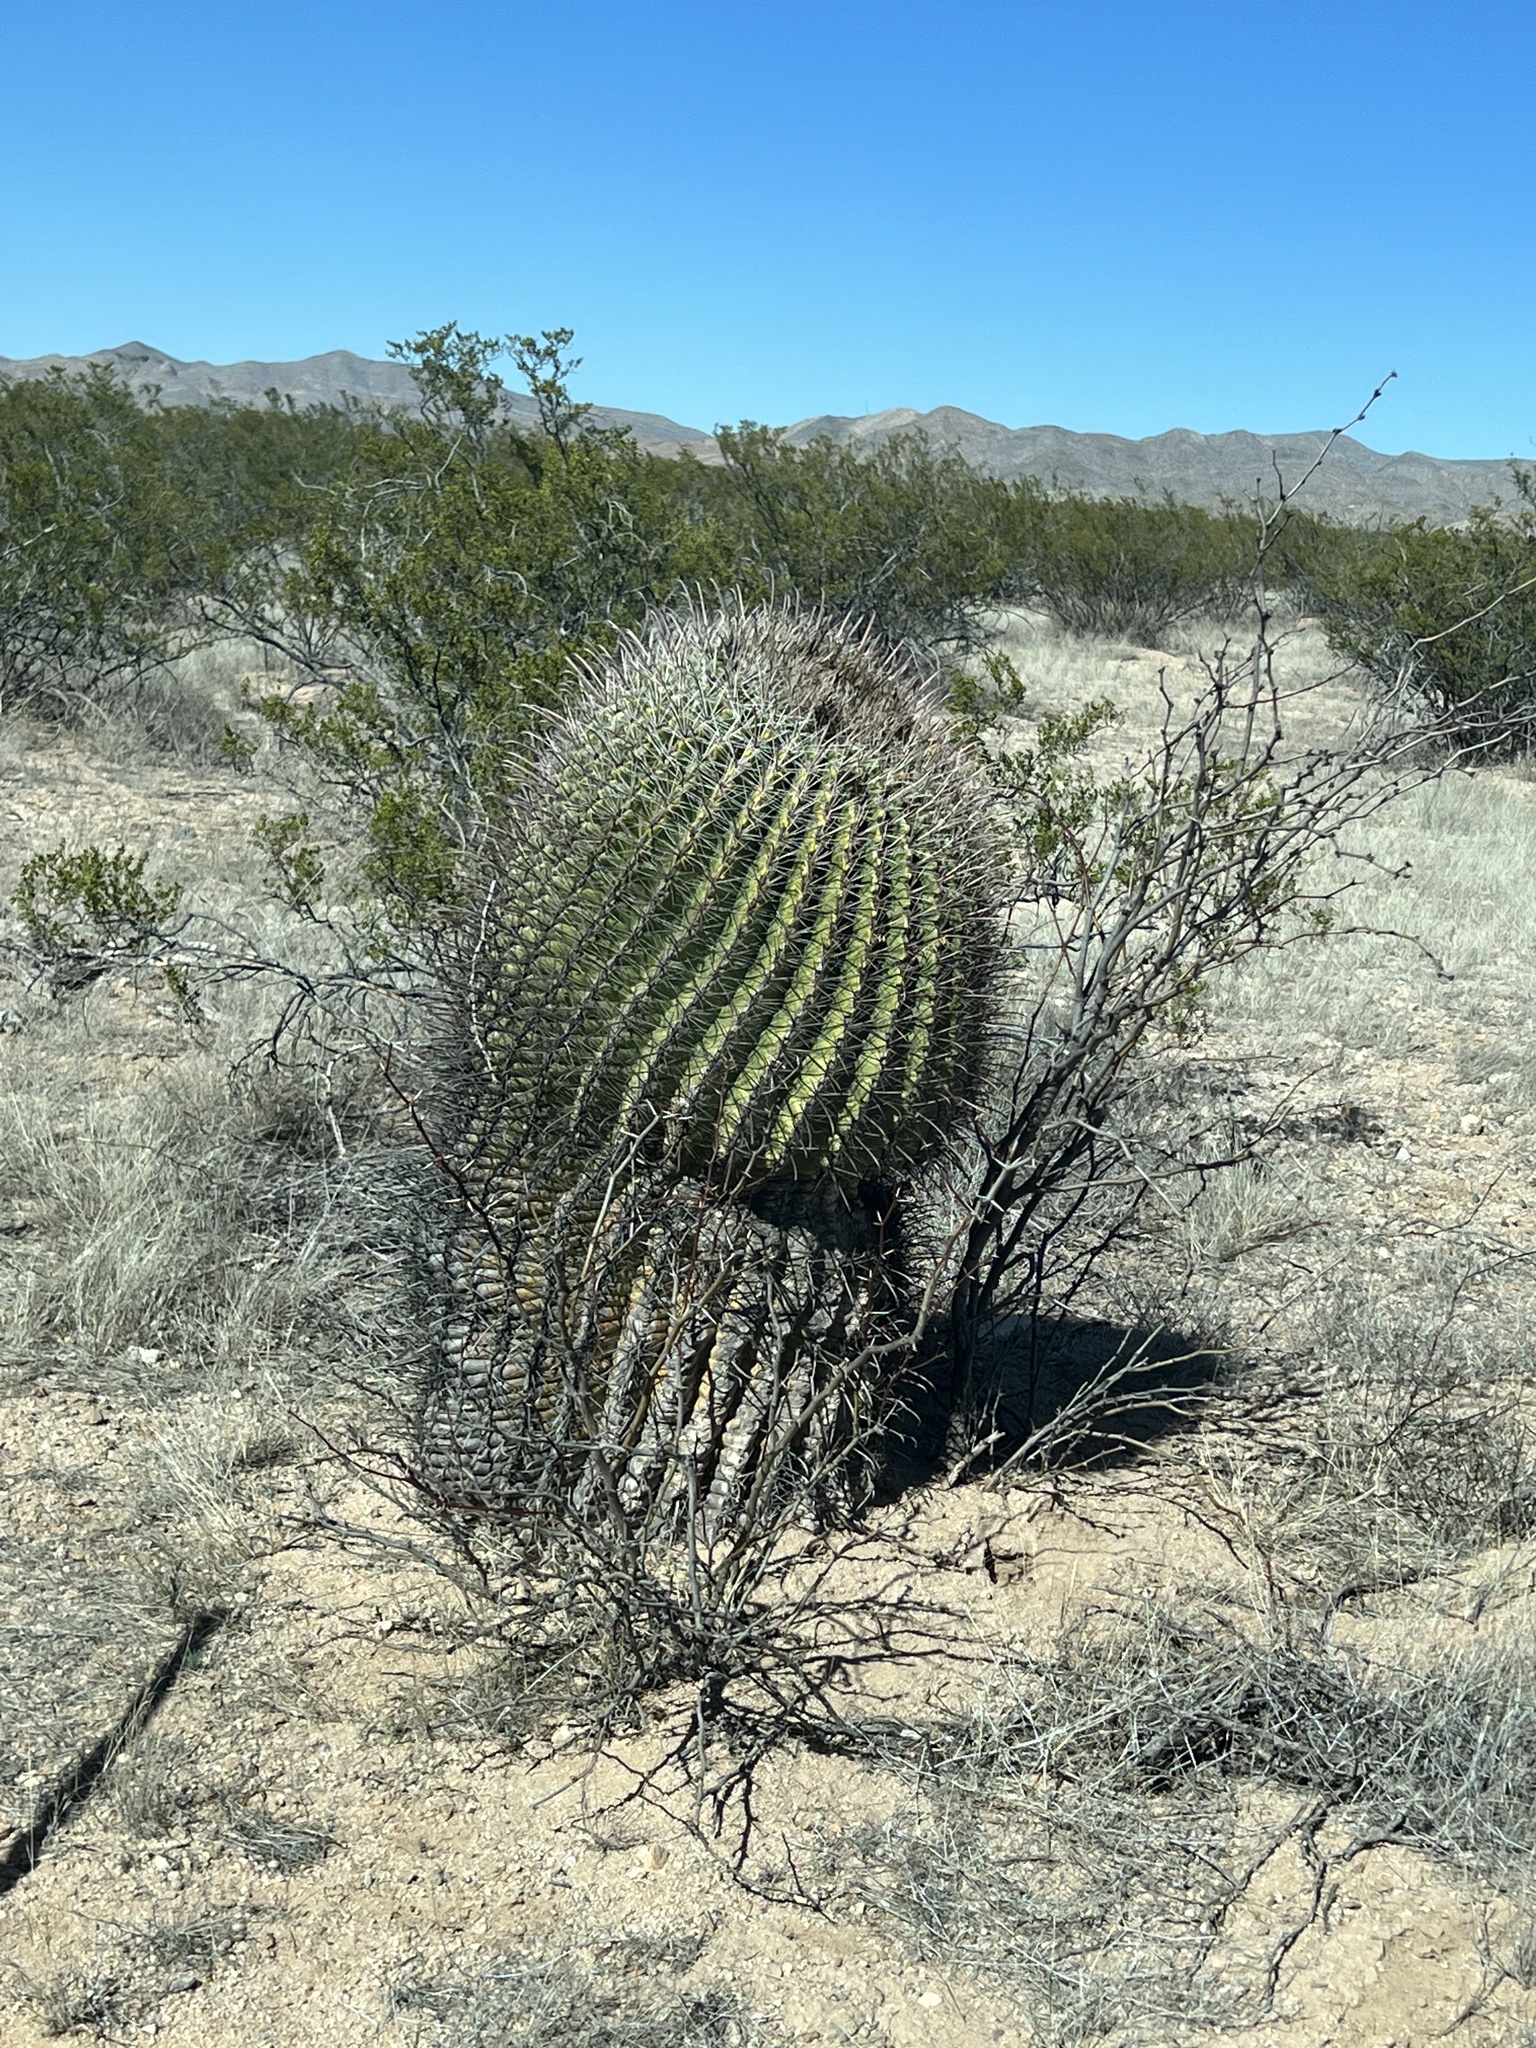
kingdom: Plantae
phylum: Tracheophyta
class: Magnoliopsida
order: Caryophyllales
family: Cactaceae
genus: Ferocactus
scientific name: Ferocactus wislizeni
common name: Candy barrel cactus
